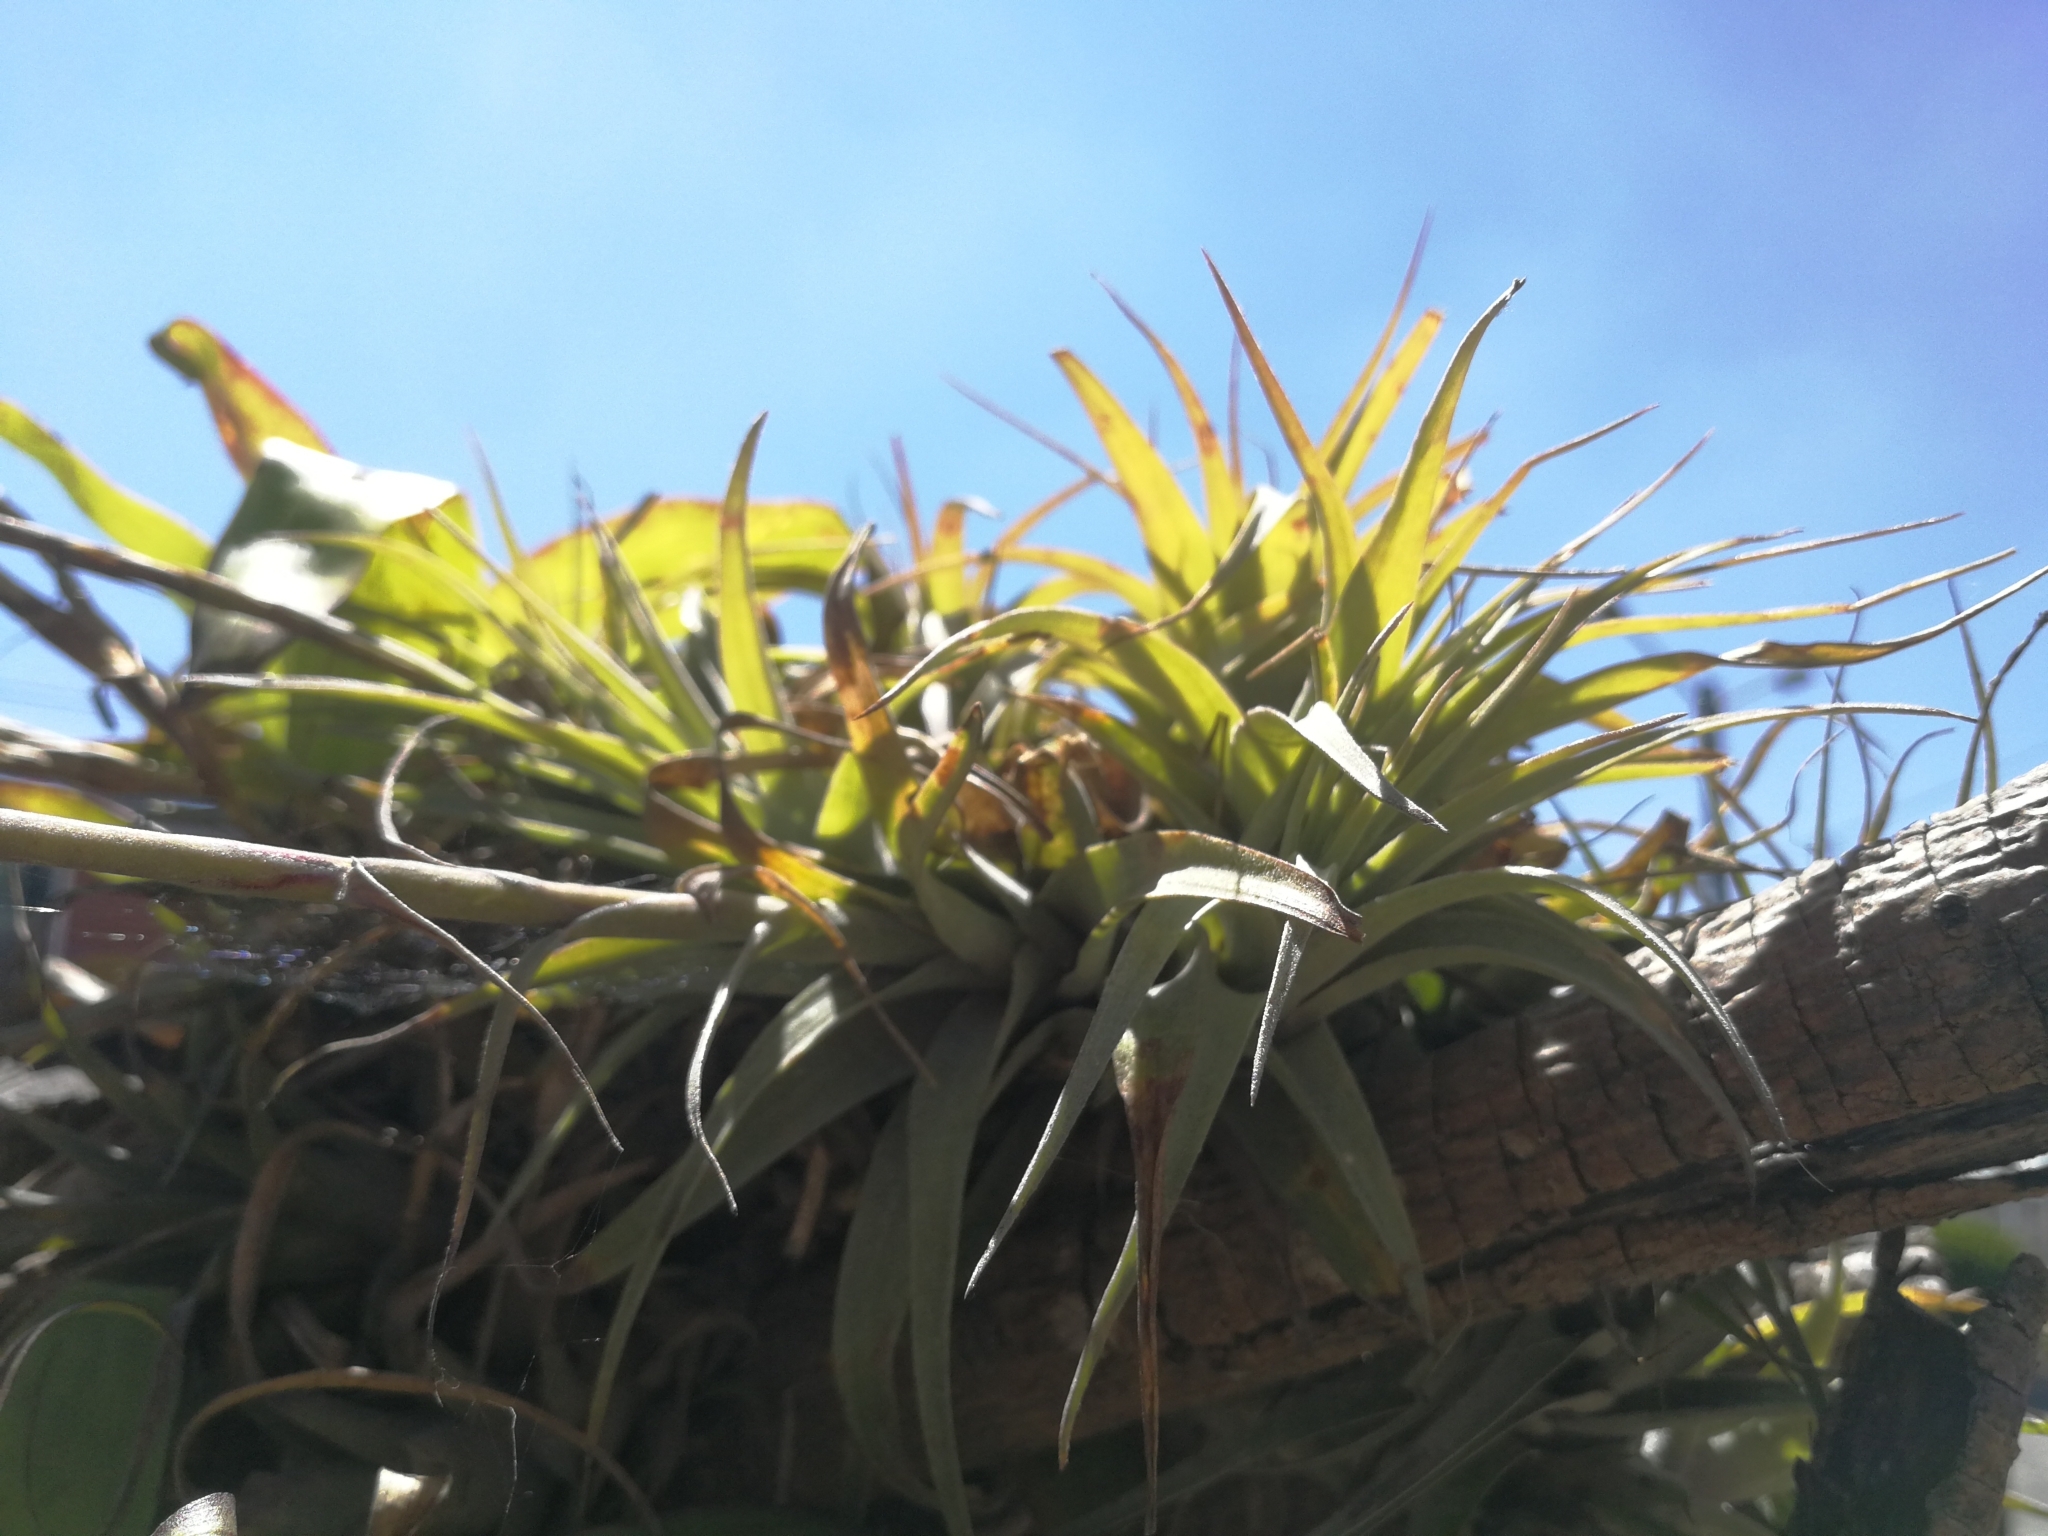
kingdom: Plantae
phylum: Tracheophyta
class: Liliopsida
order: Poales
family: Bromeliaceae
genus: Tillandsia
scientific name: Tillandsia incarnata
